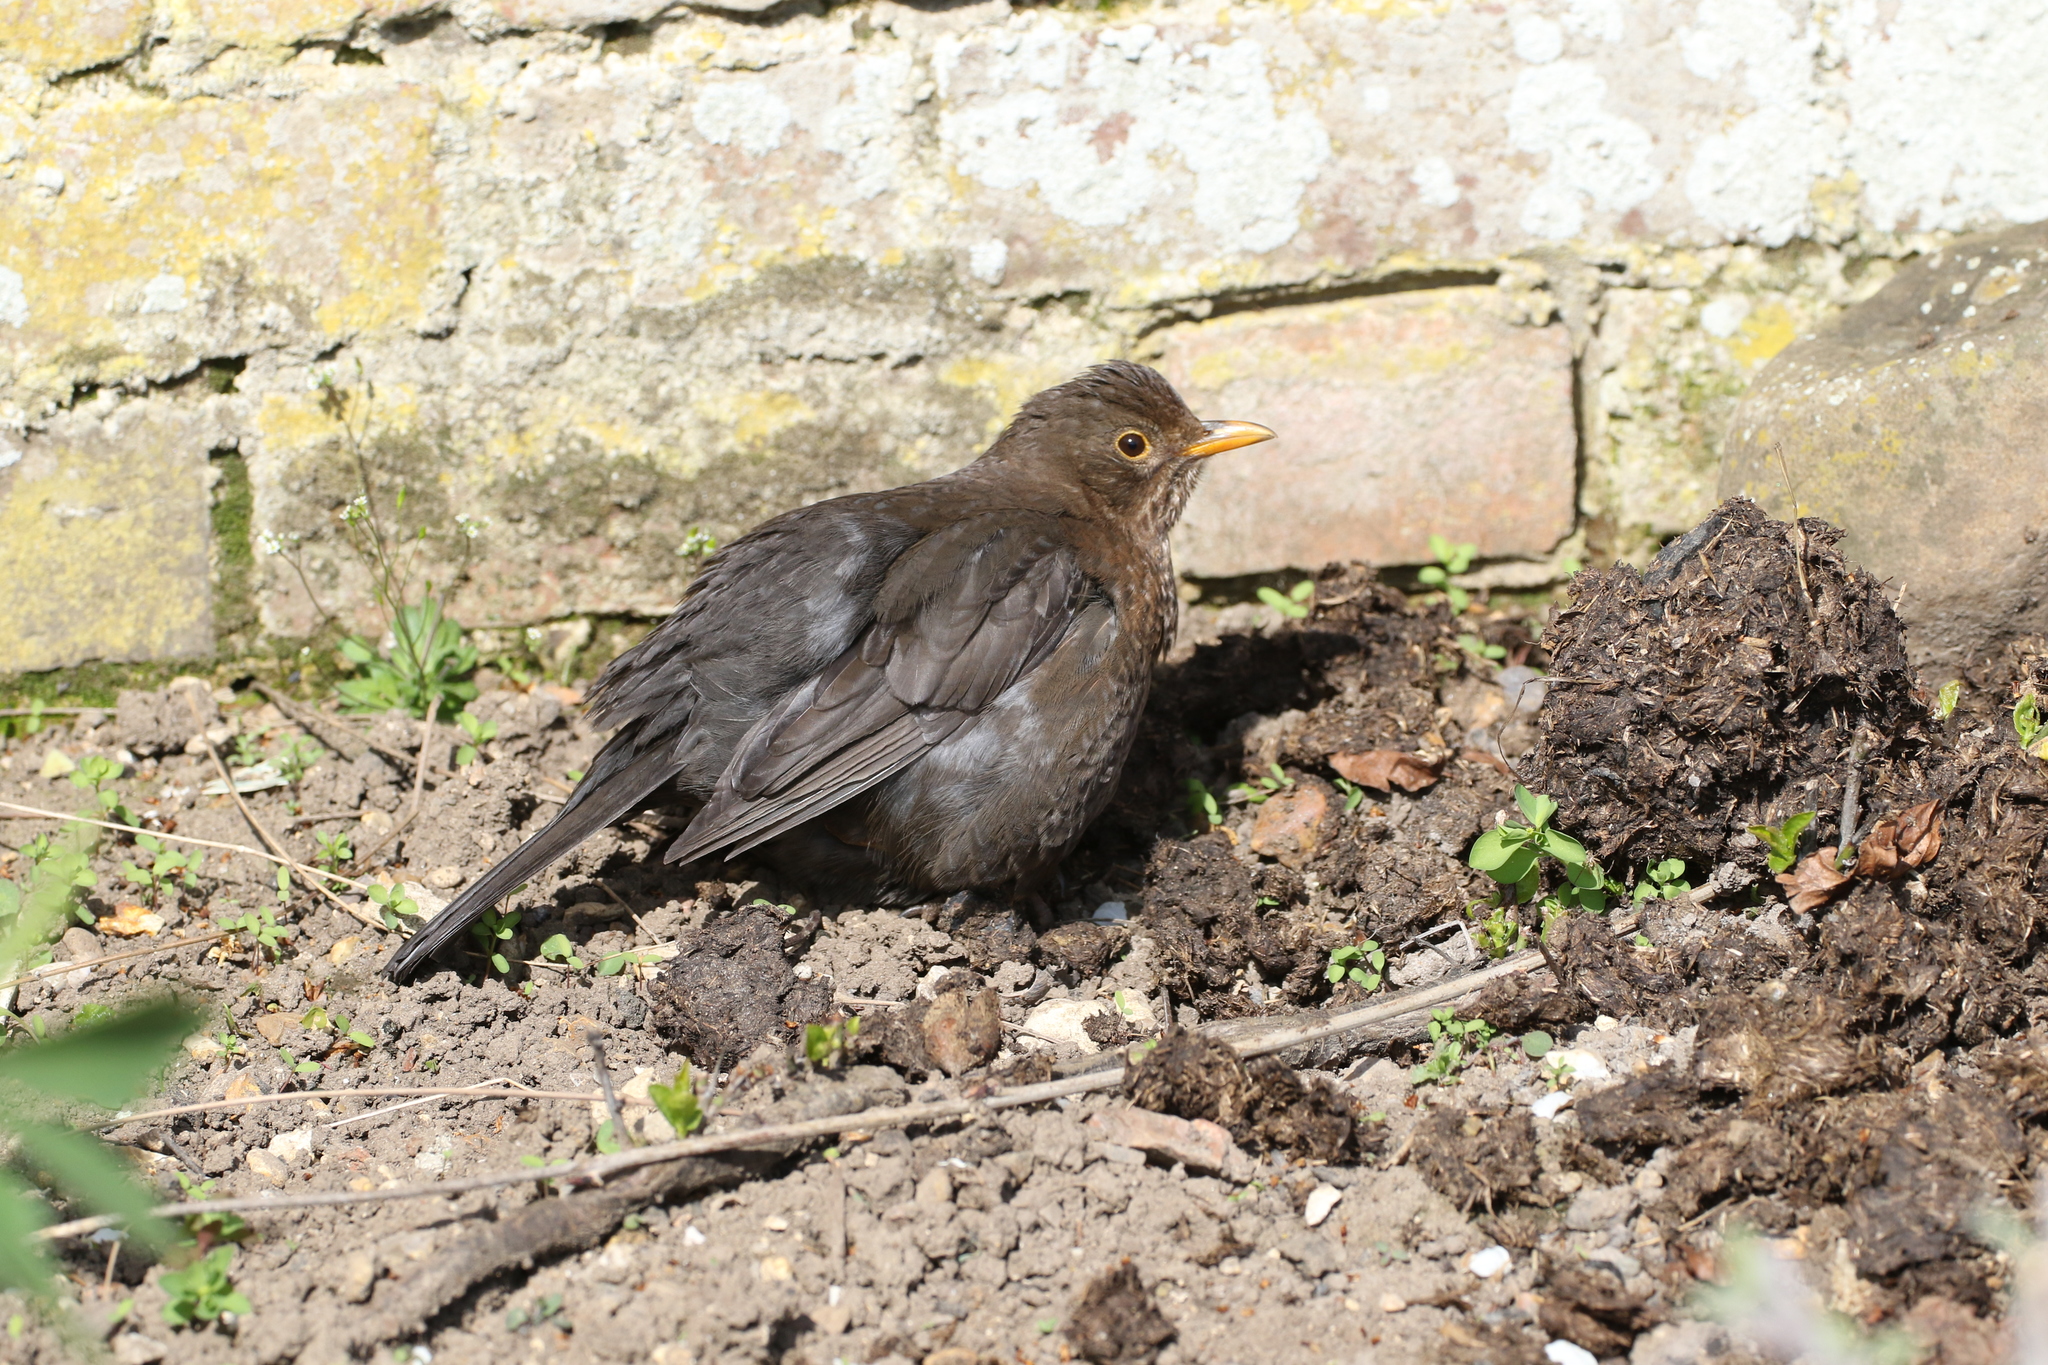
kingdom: Animalia
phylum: Chordata
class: Aves
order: Passeriformes
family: Turdidae
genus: Turdus
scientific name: Turdus merula
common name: Common blackbird
